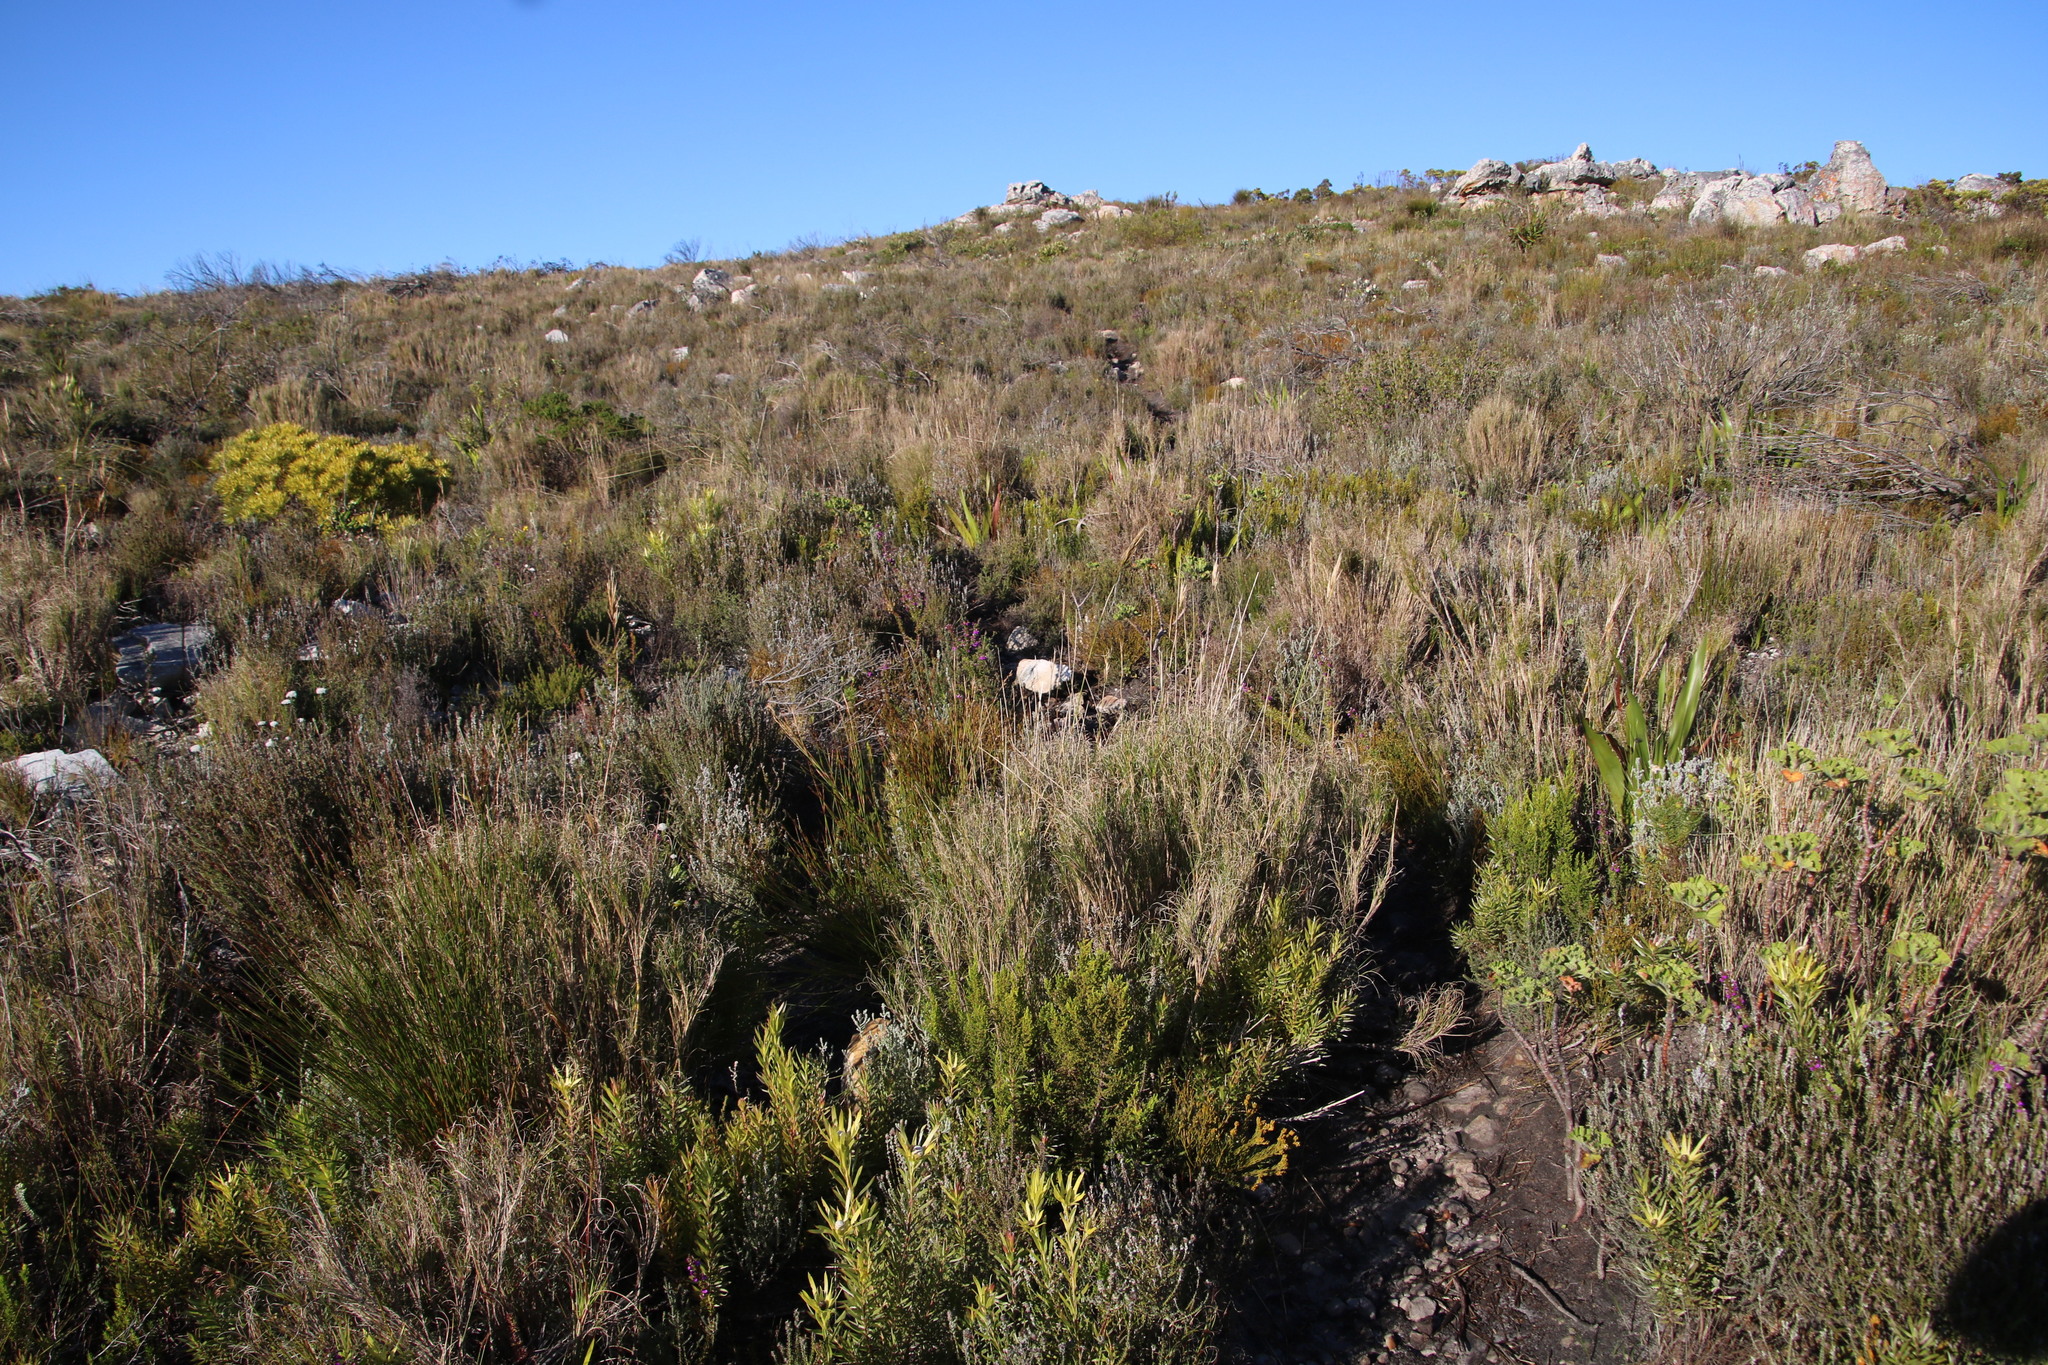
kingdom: Plantae
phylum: Tracheophyta
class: Liliopsida
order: Poales
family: Poaceae
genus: Pseudopentameris
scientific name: Pseudopentameris macrantha
